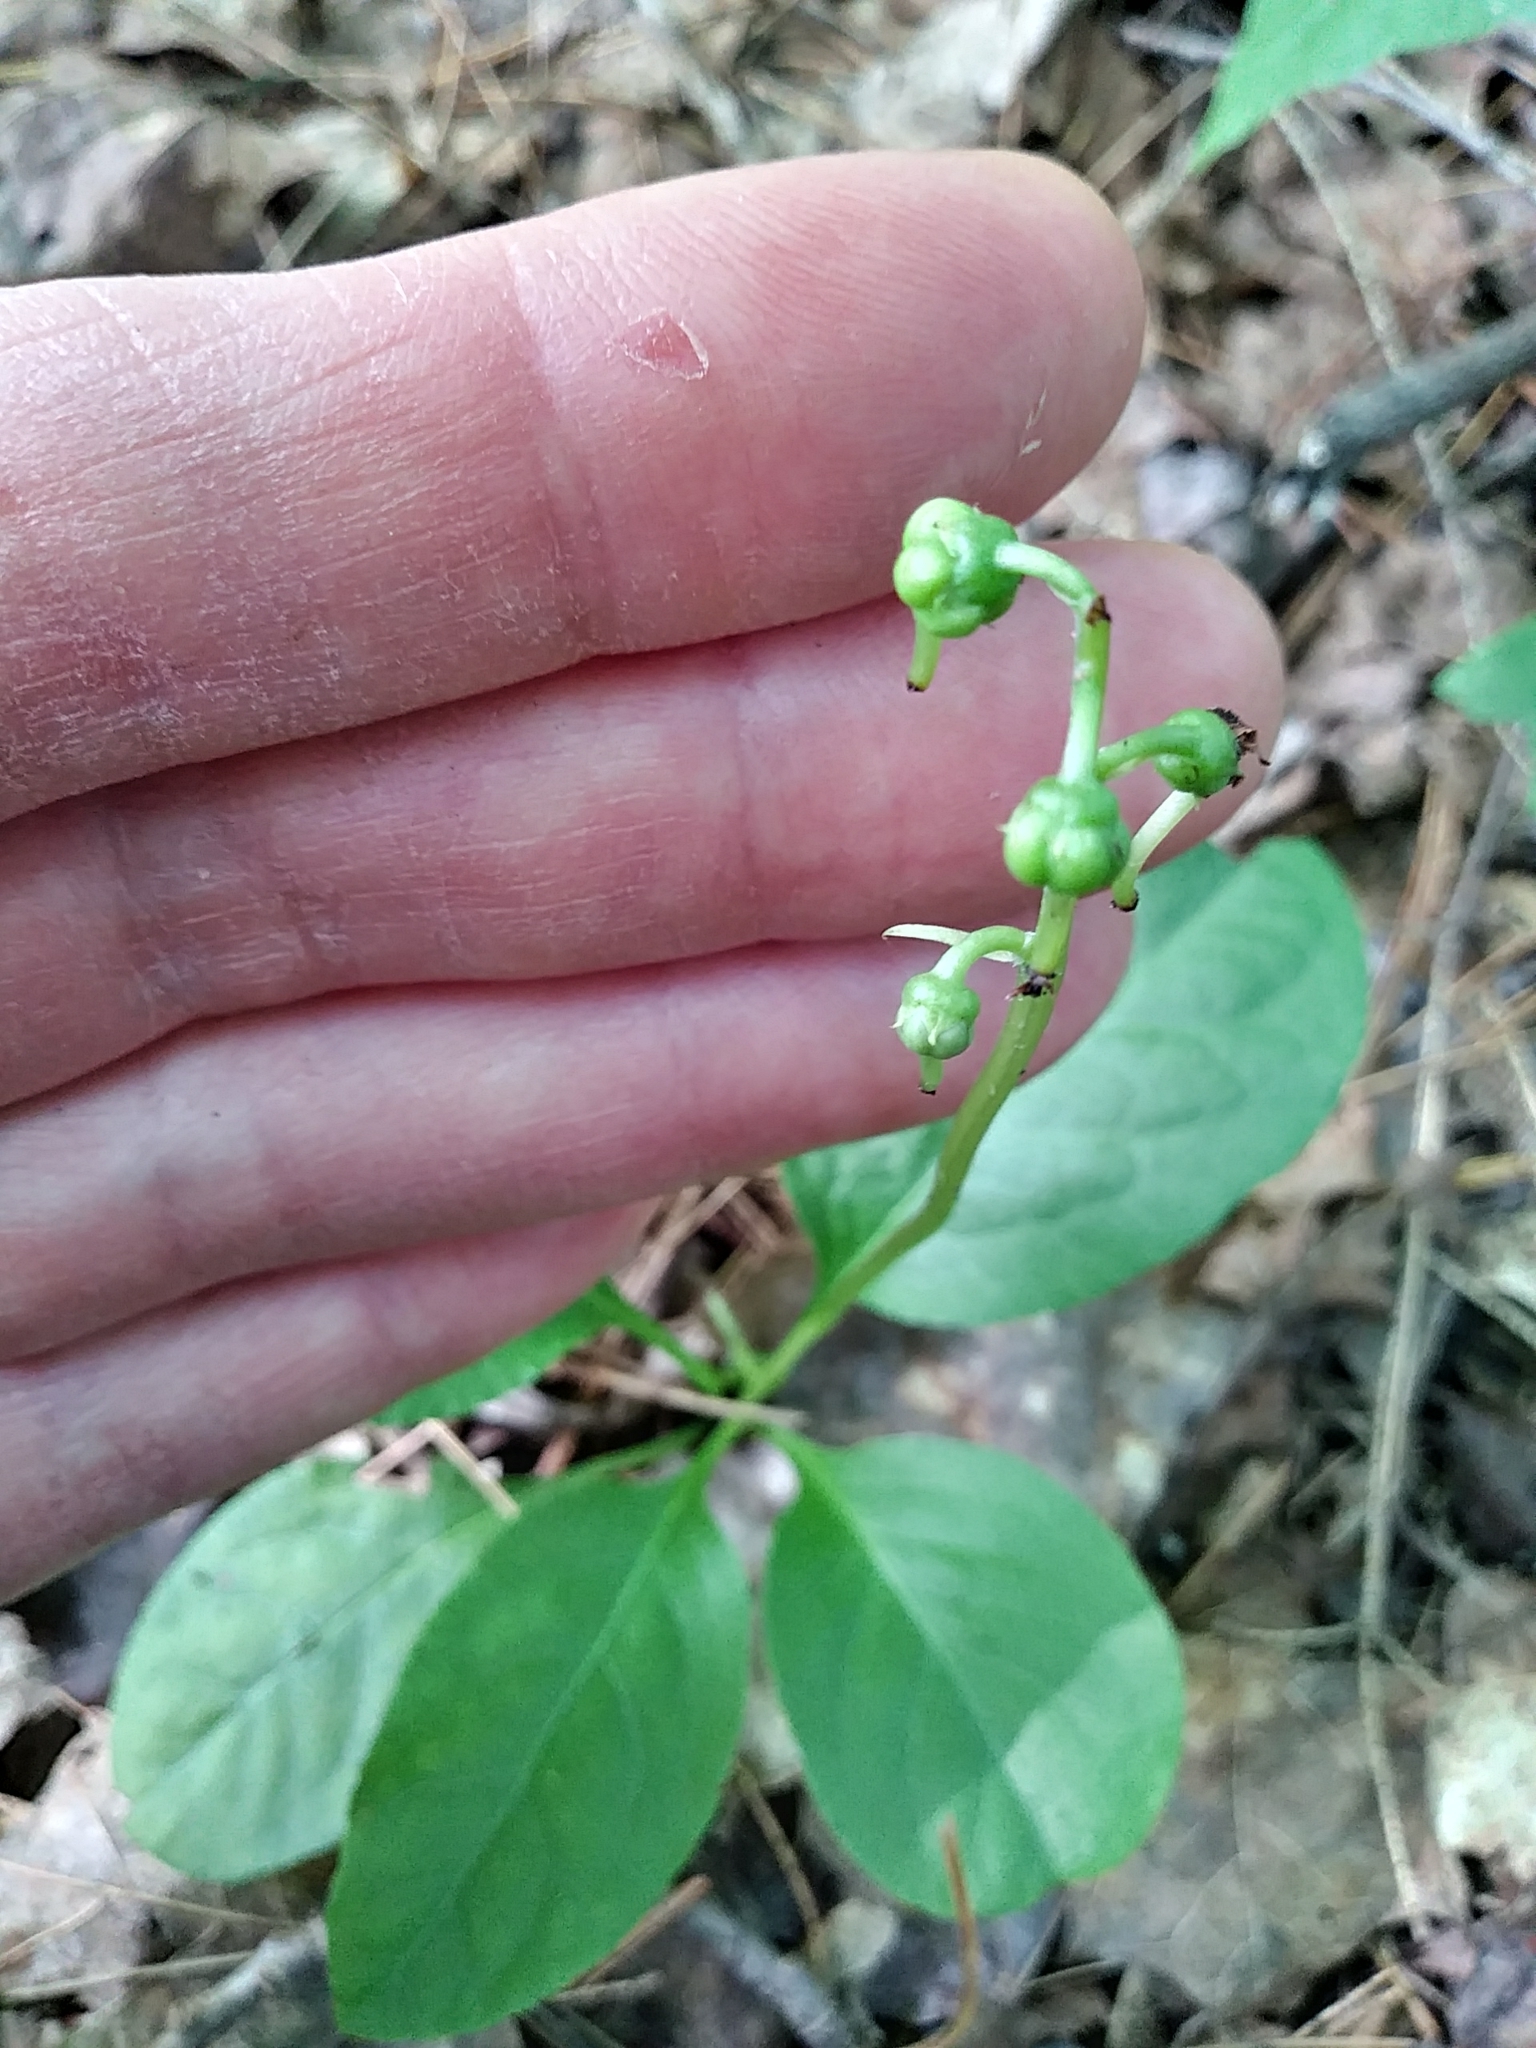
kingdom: Plantae
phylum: Tracheophyta
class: Magnoliopsida
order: Ericales
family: Ericaceae
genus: Pyrola
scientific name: Pyrola elliptica
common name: Shinleaf
